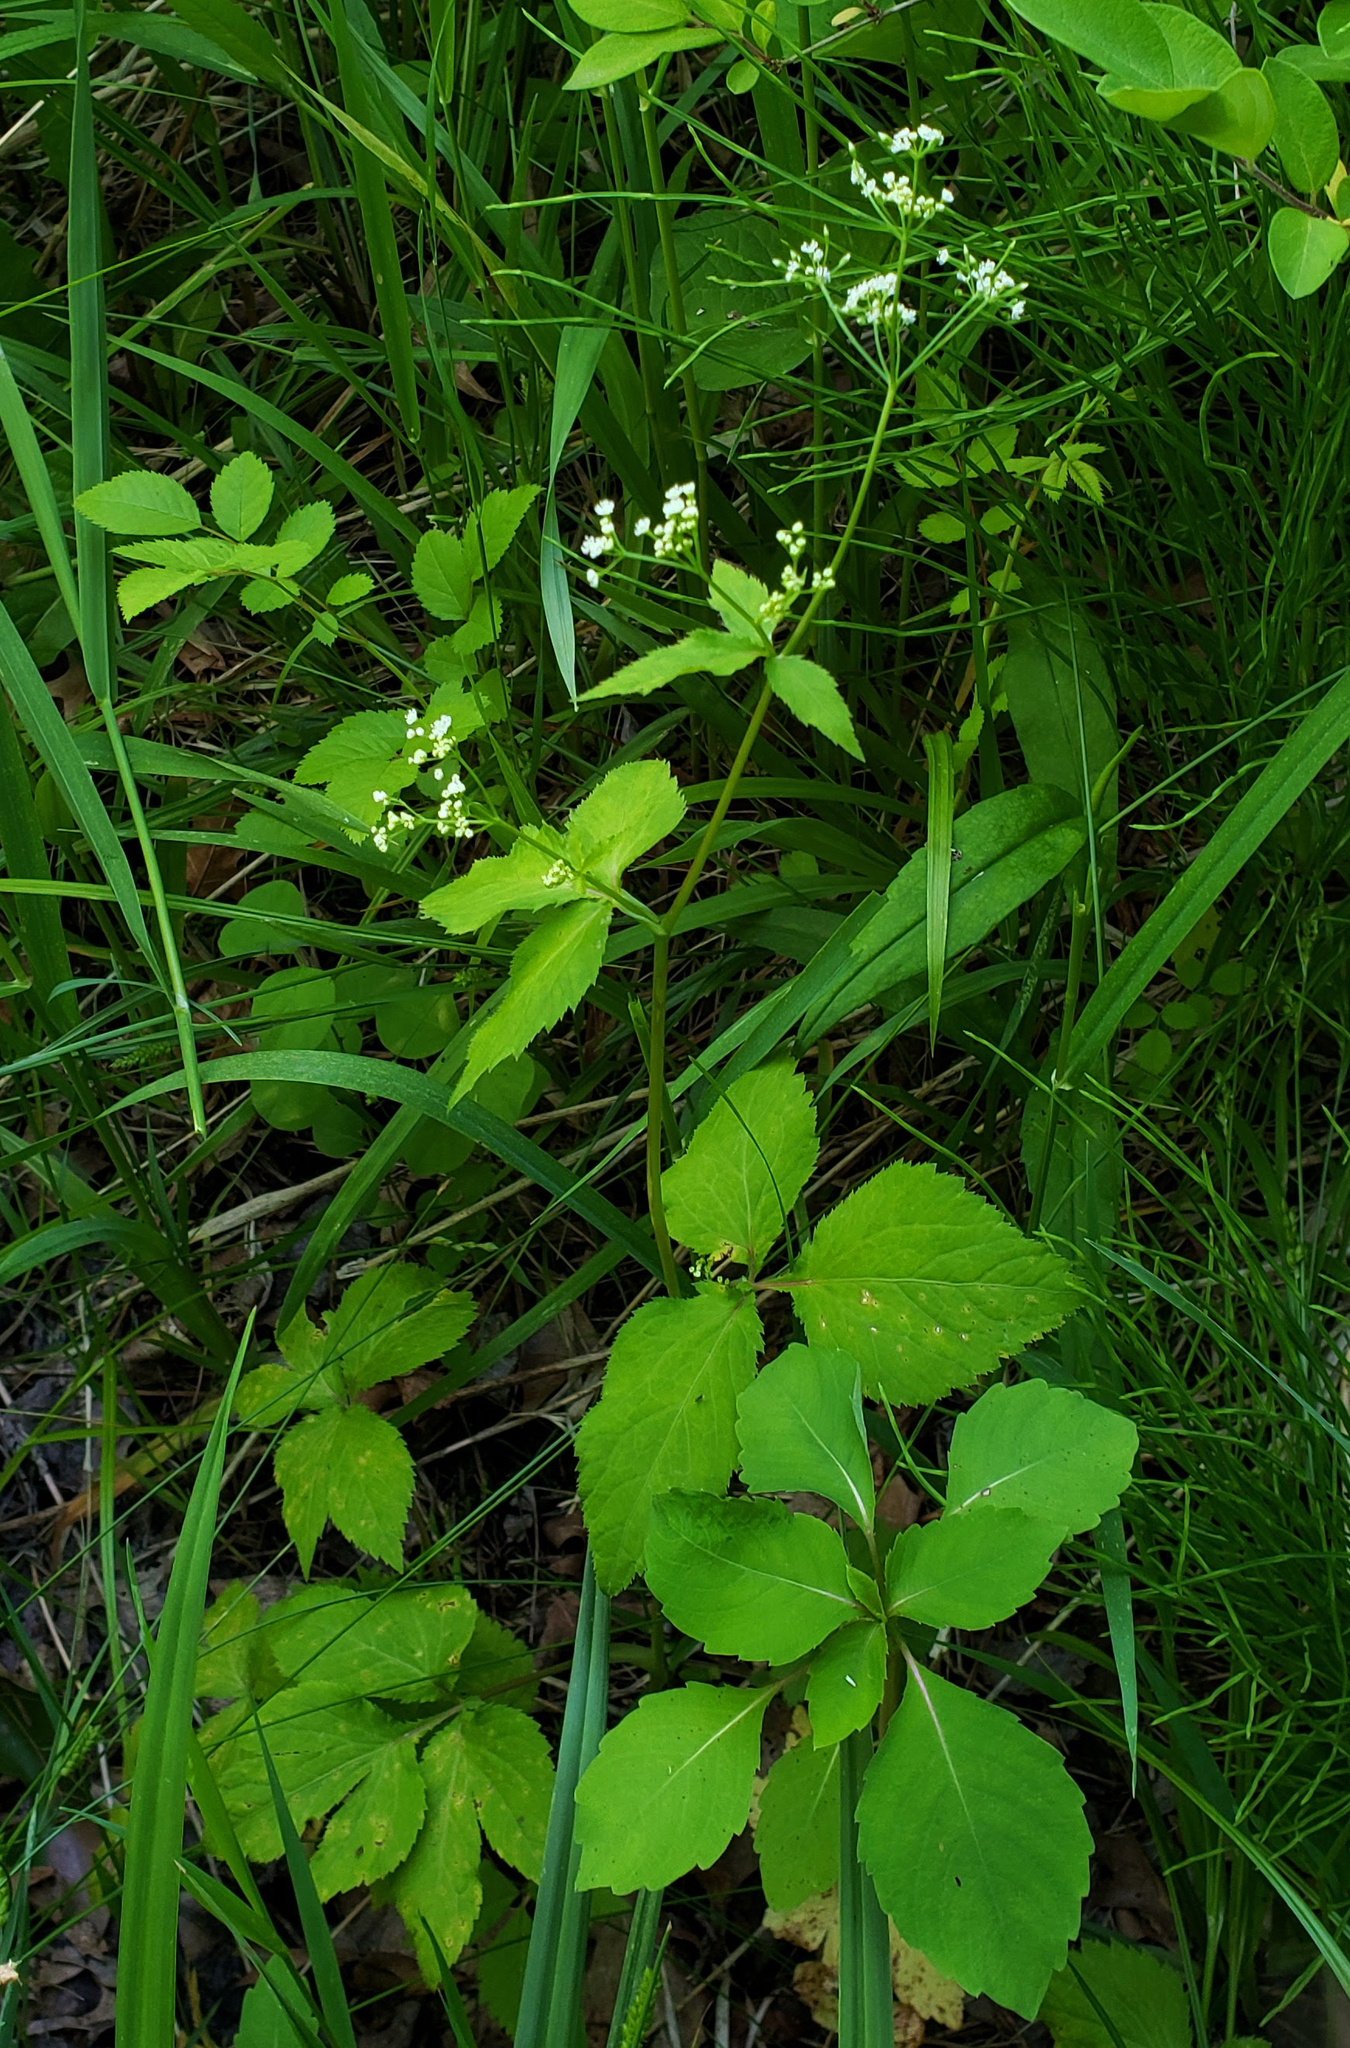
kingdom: Plantae
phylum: Tracheophyta
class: Magnoliopsida
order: Apiales
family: Apiaceae
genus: Cryptotaenia
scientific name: Cryptotaenia canadensis
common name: Honewort
